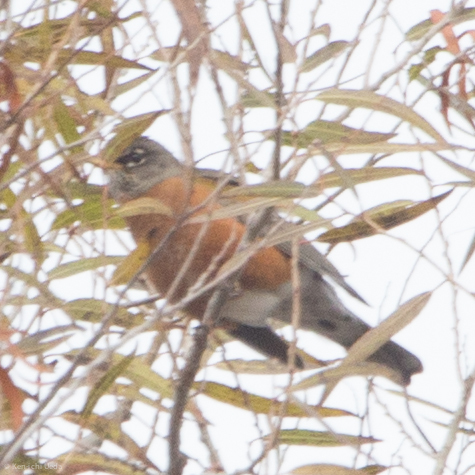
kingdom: Animalia
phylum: Chordata
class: Aves
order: Passeriformes
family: Turdidae
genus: Turdus
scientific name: Turdus migratorius
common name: American robin
